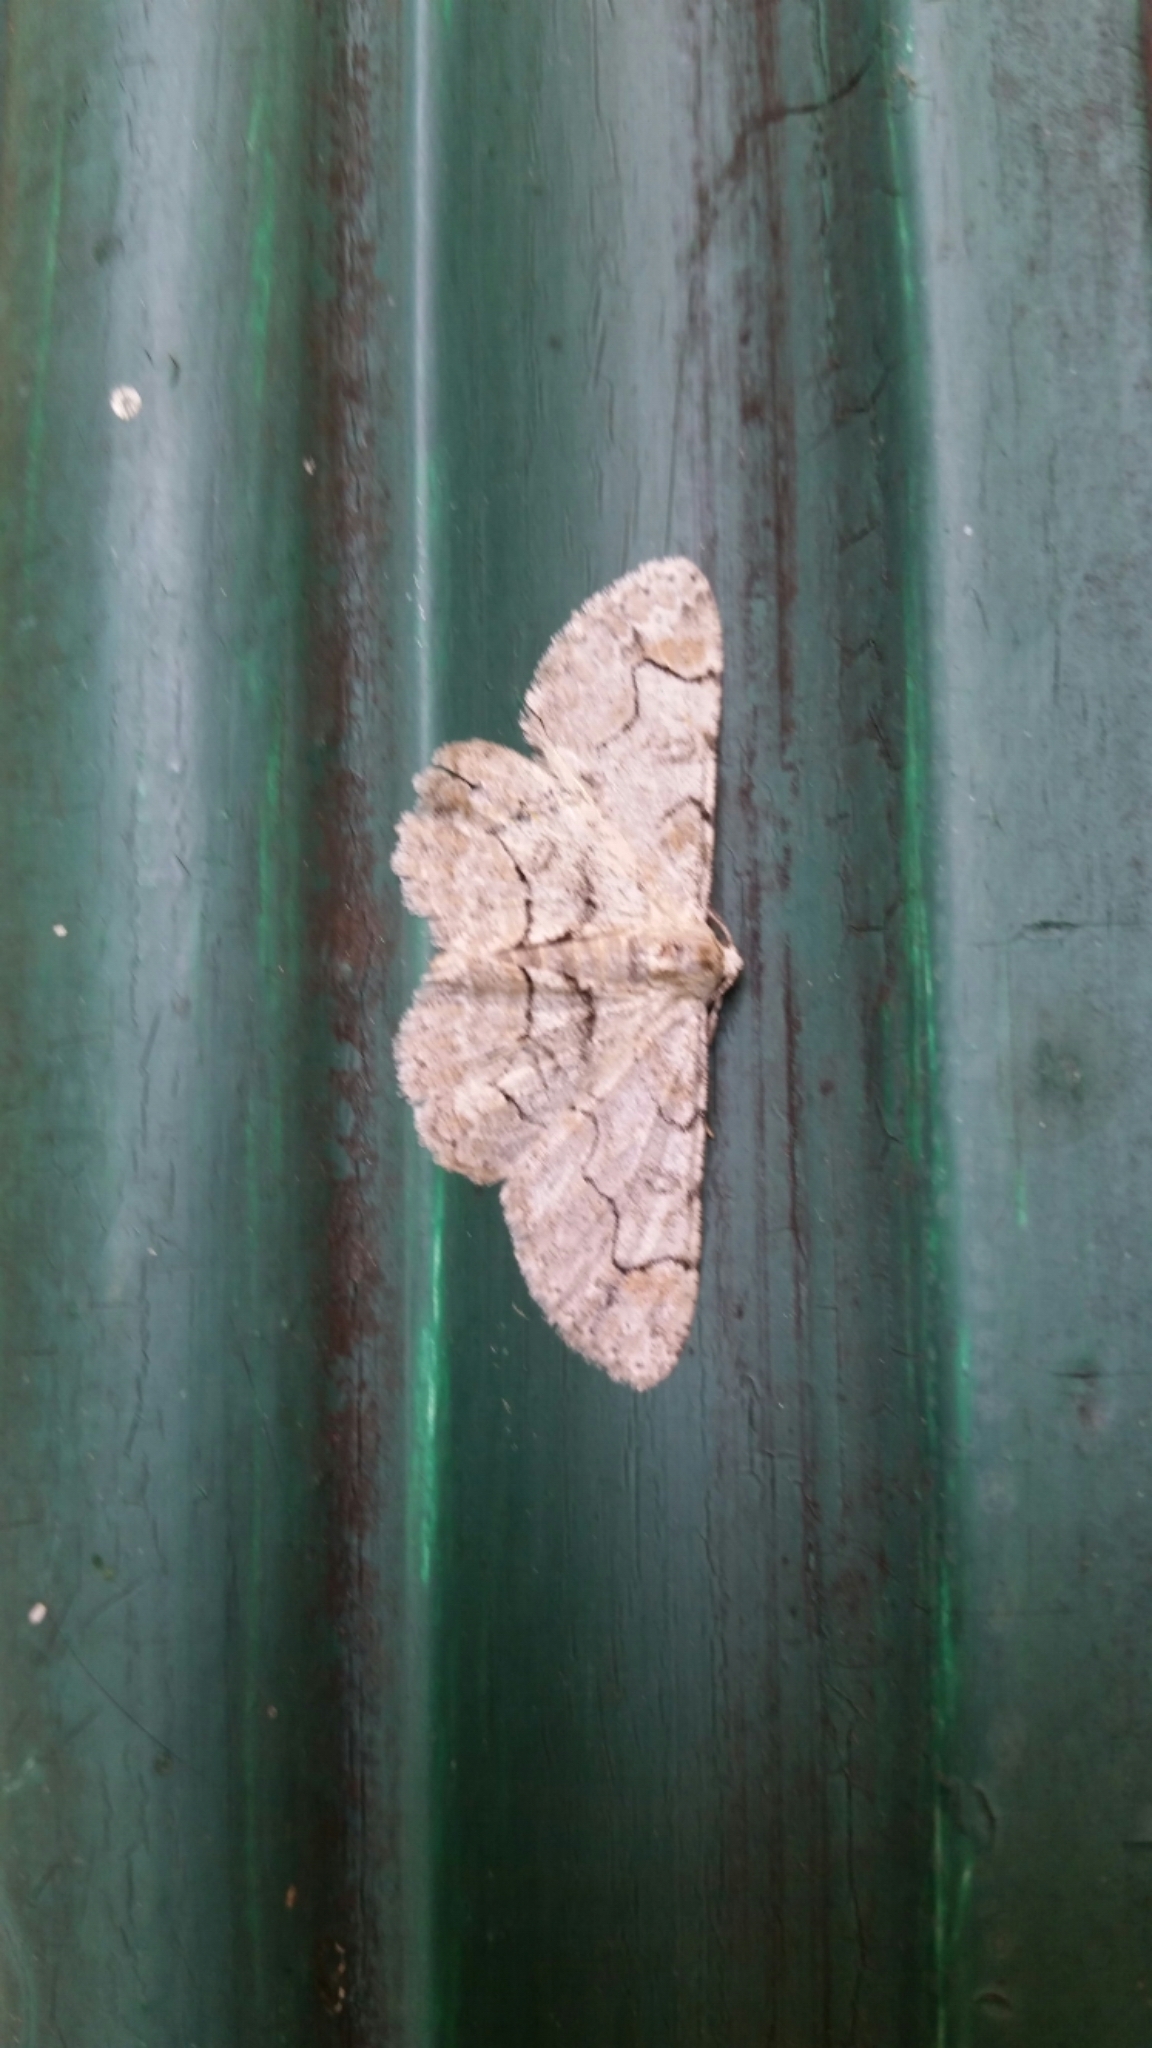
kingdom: Animalia
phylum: Arthropoda
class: Insecta
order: Lepidoptera
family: Geometridae
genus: Iridopsis
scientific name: Iridopsis larvaria
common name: Bent-line gray
